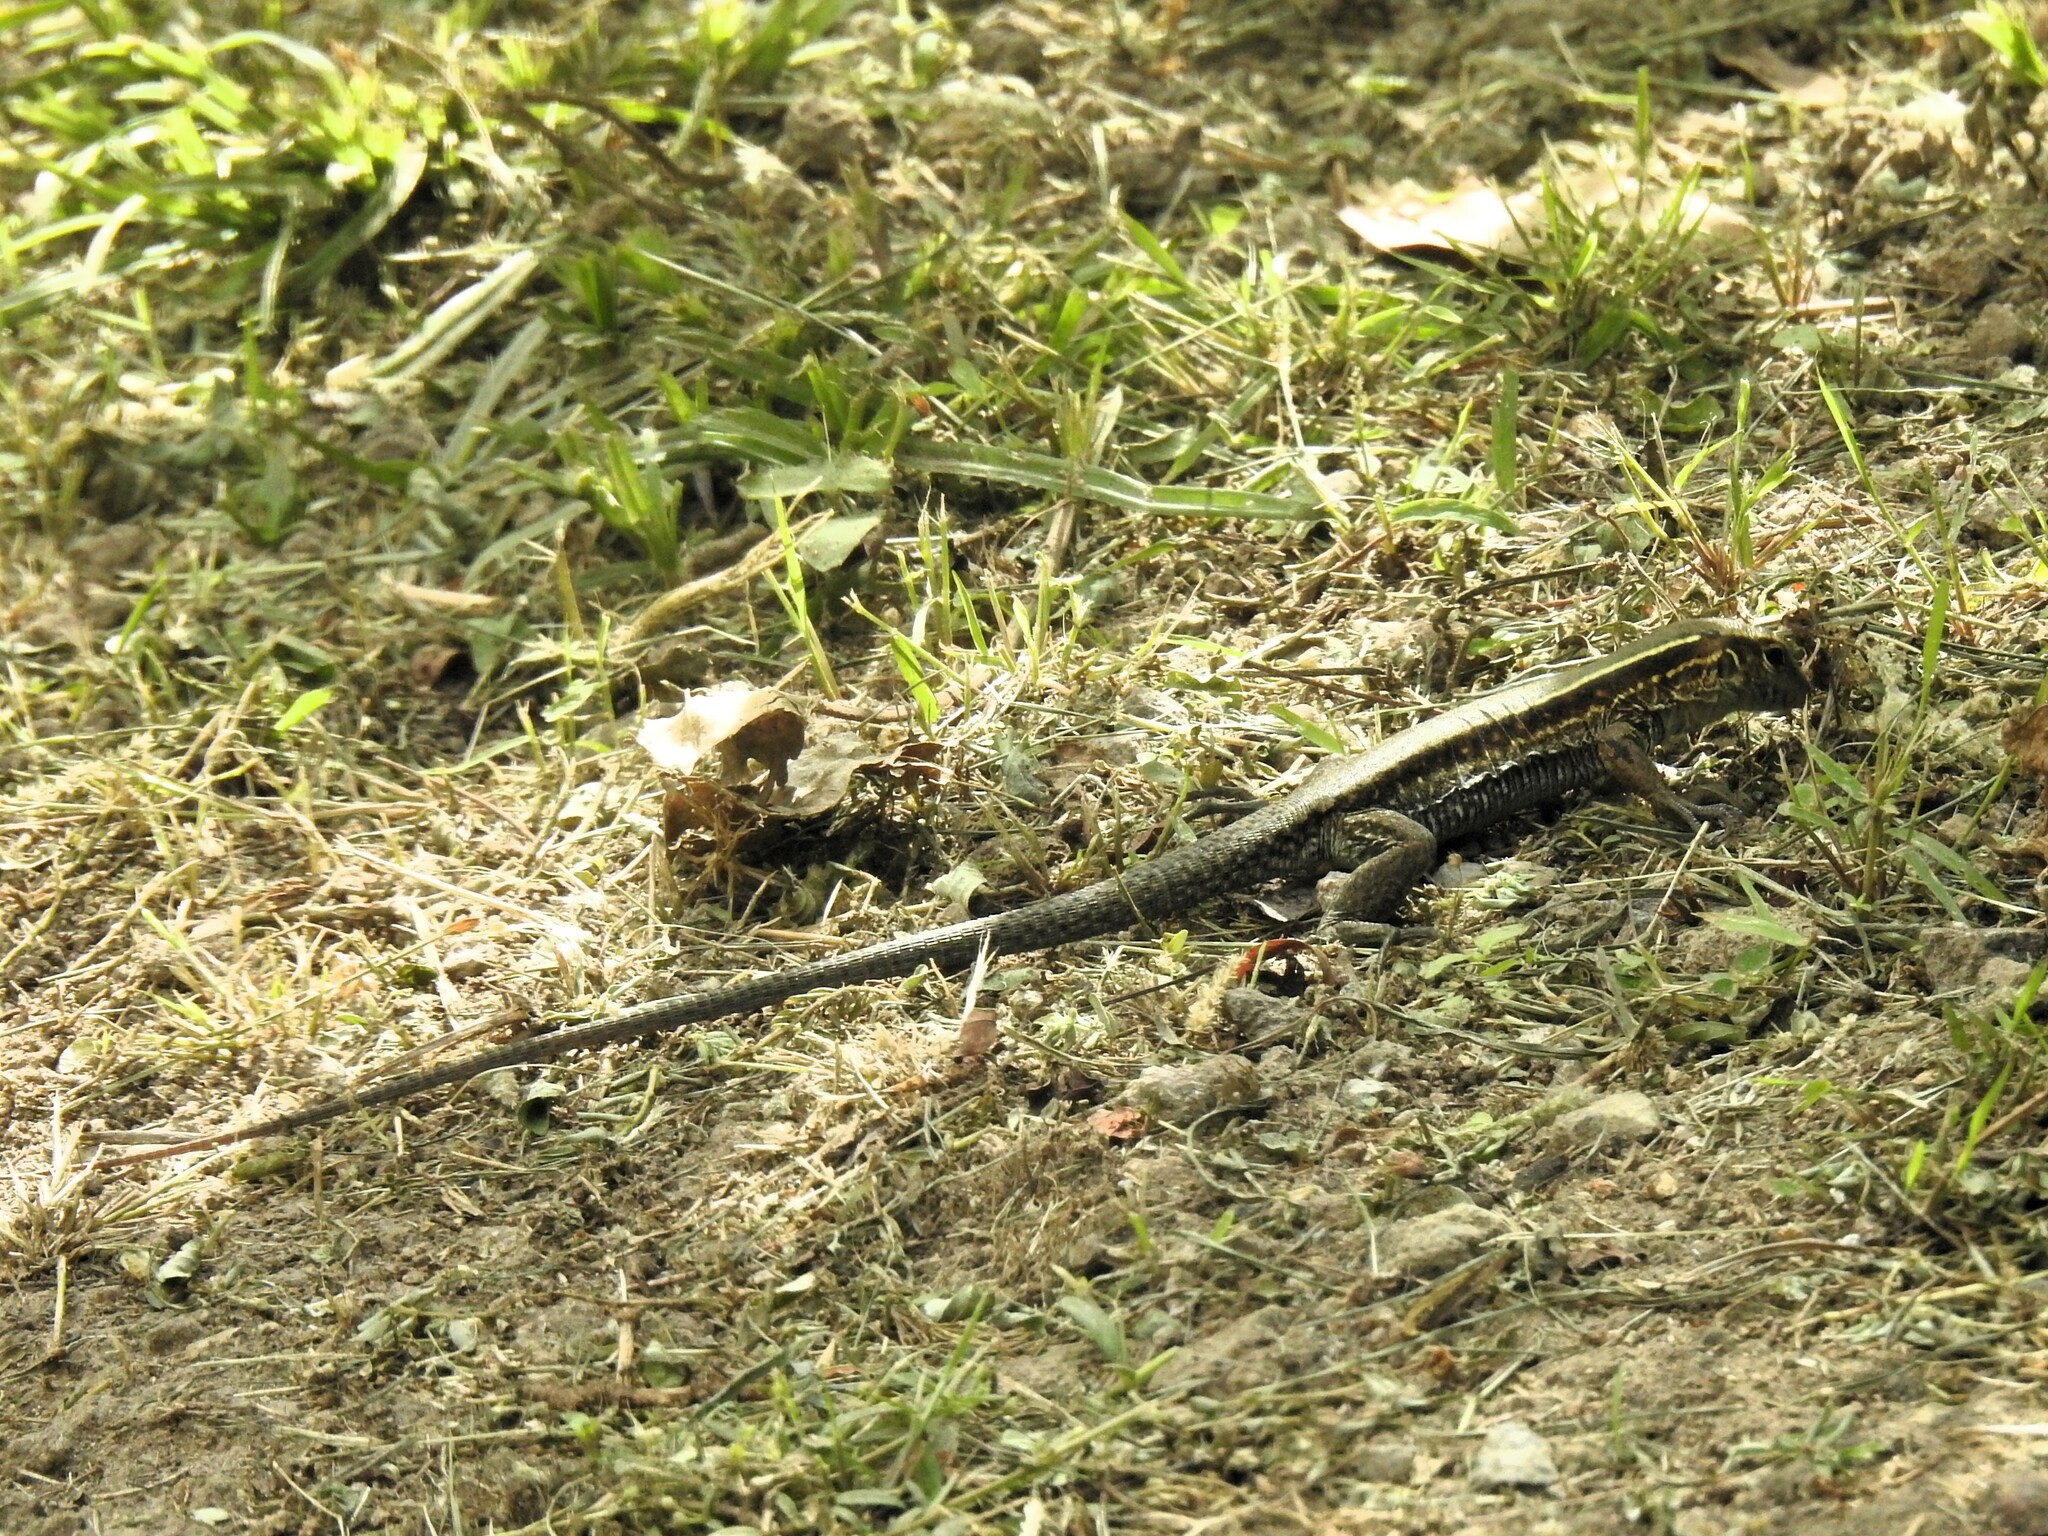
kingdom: Animalia
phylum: Chordata
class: Squamata
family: Teiidae
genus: Pholidoscelis
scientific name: Pholidoscelis fuscatus
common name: Dominican ameiva
